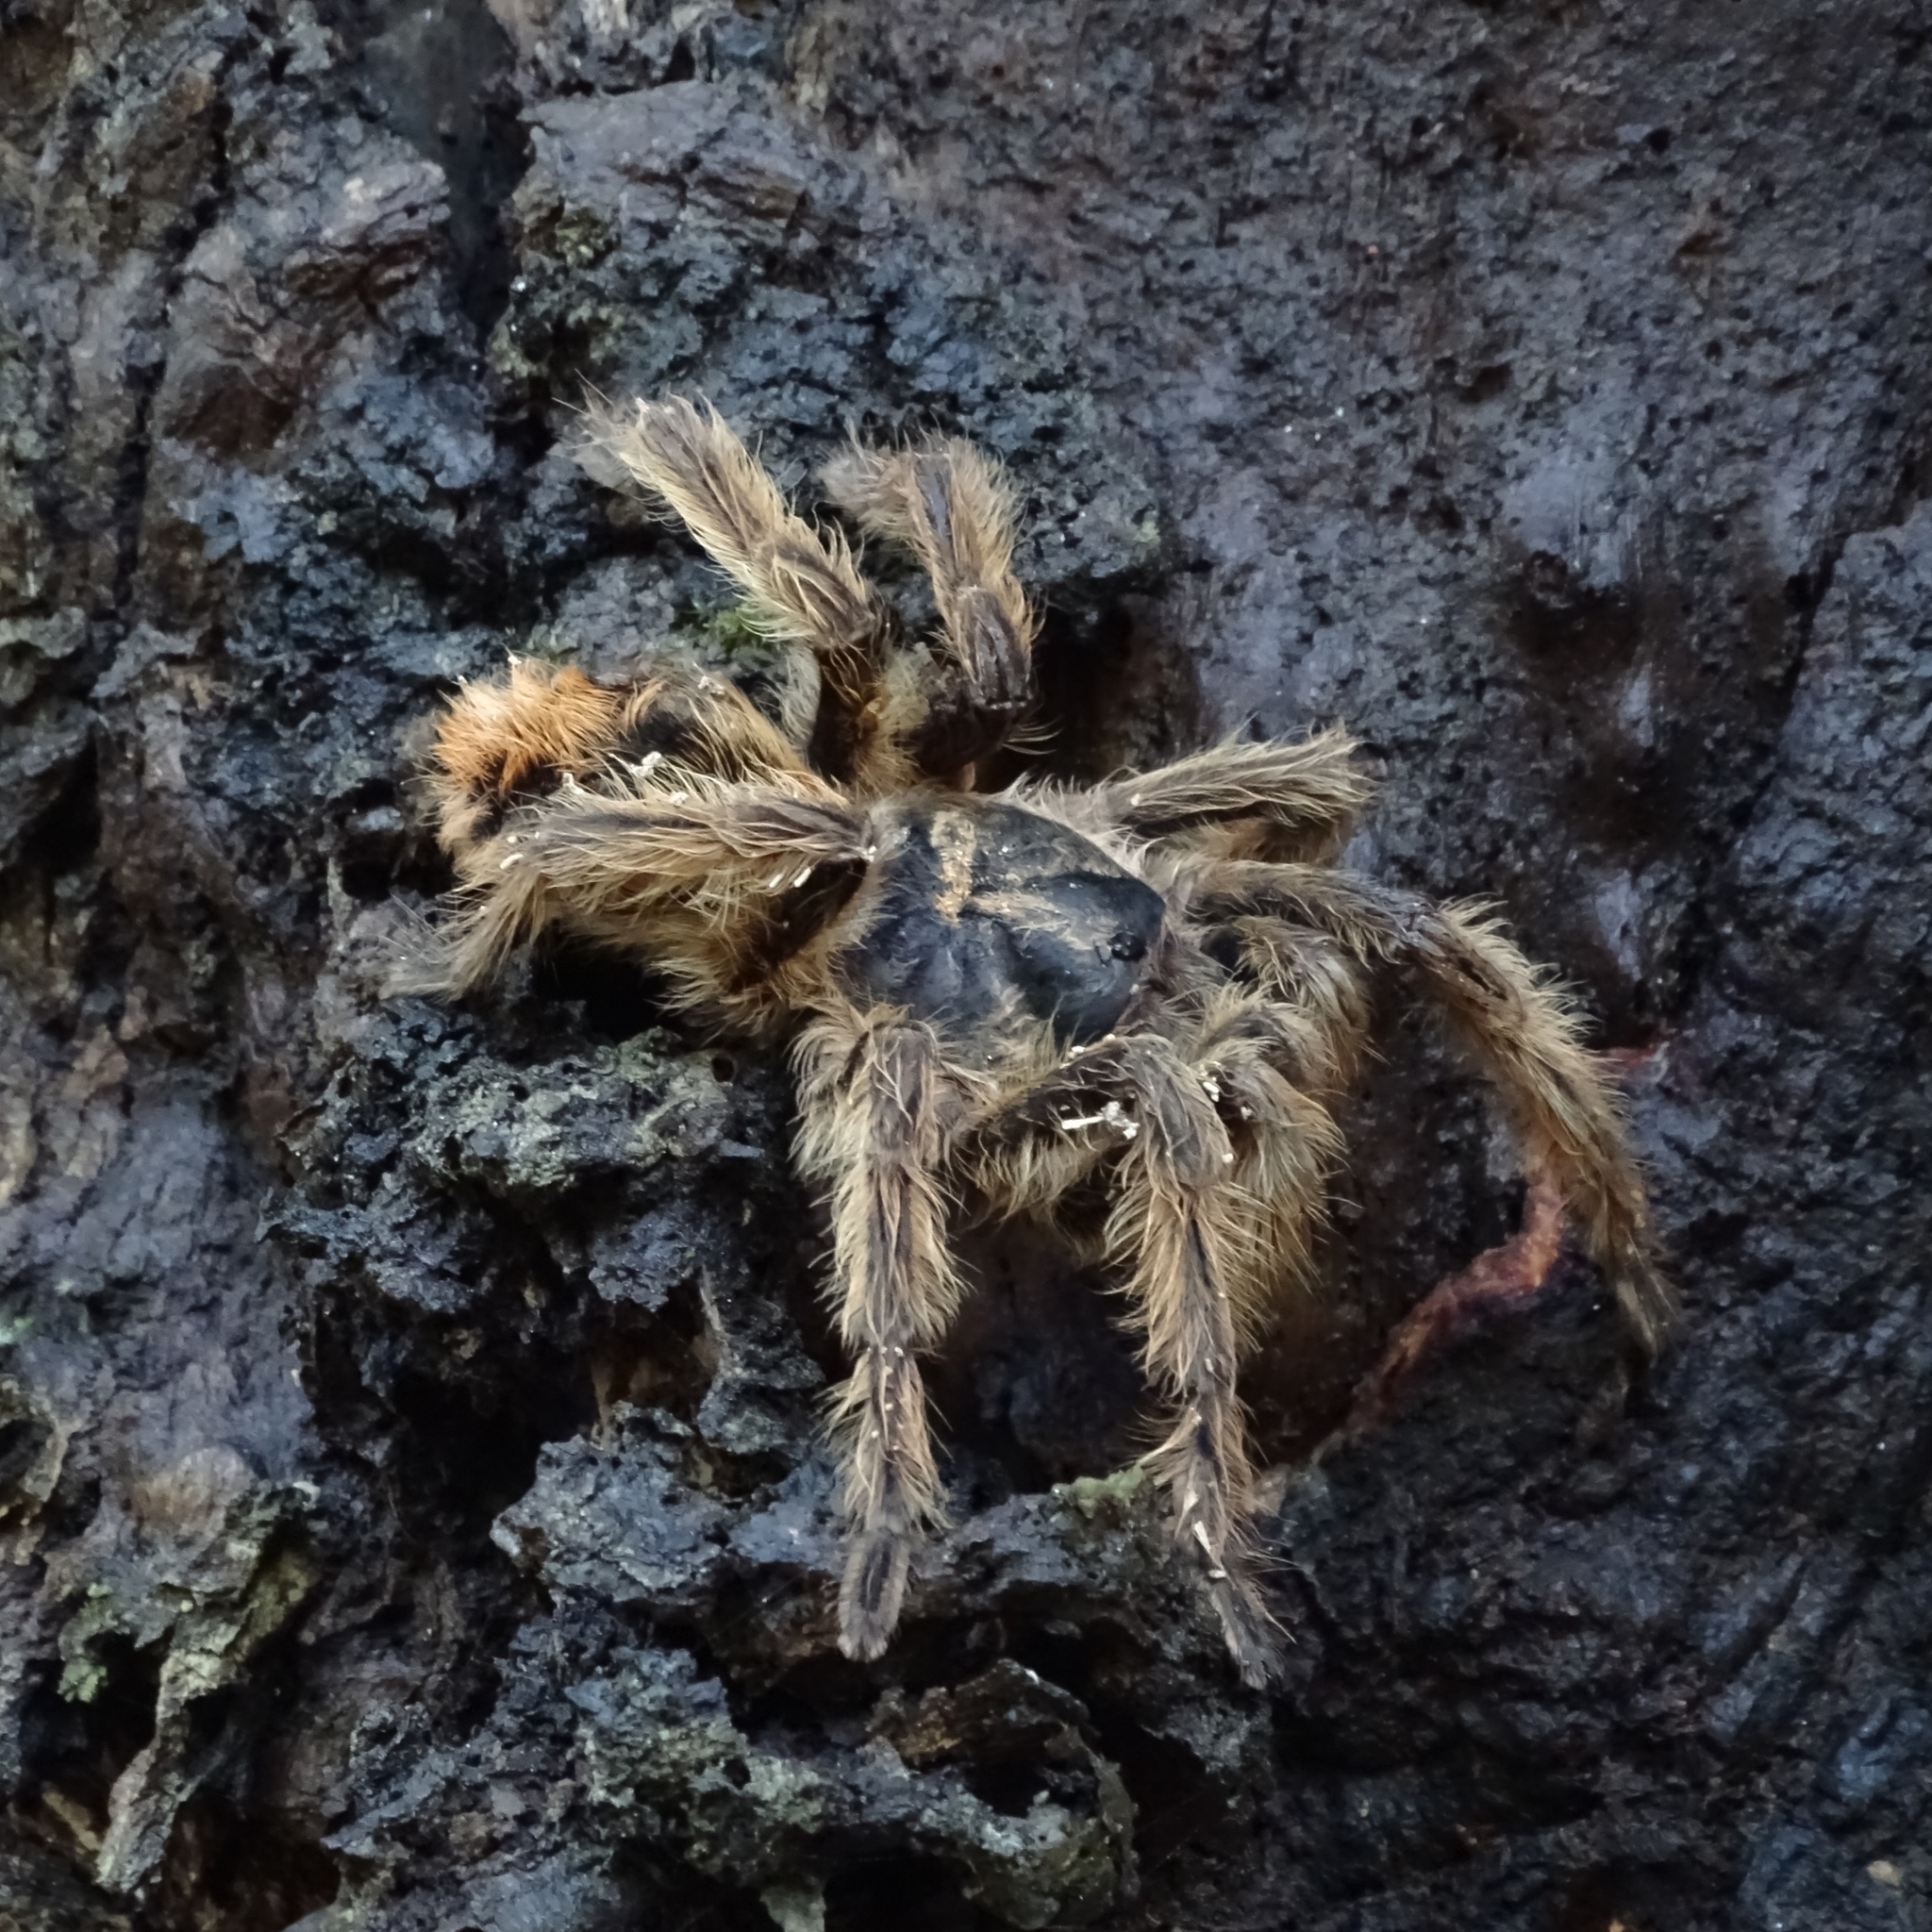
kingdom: Animalia
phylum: Arthropoda
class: Arachnida
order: Araneae
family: Theraphosidae
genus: Phrixotrichus
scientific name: Phrixotrichus vulpinus
